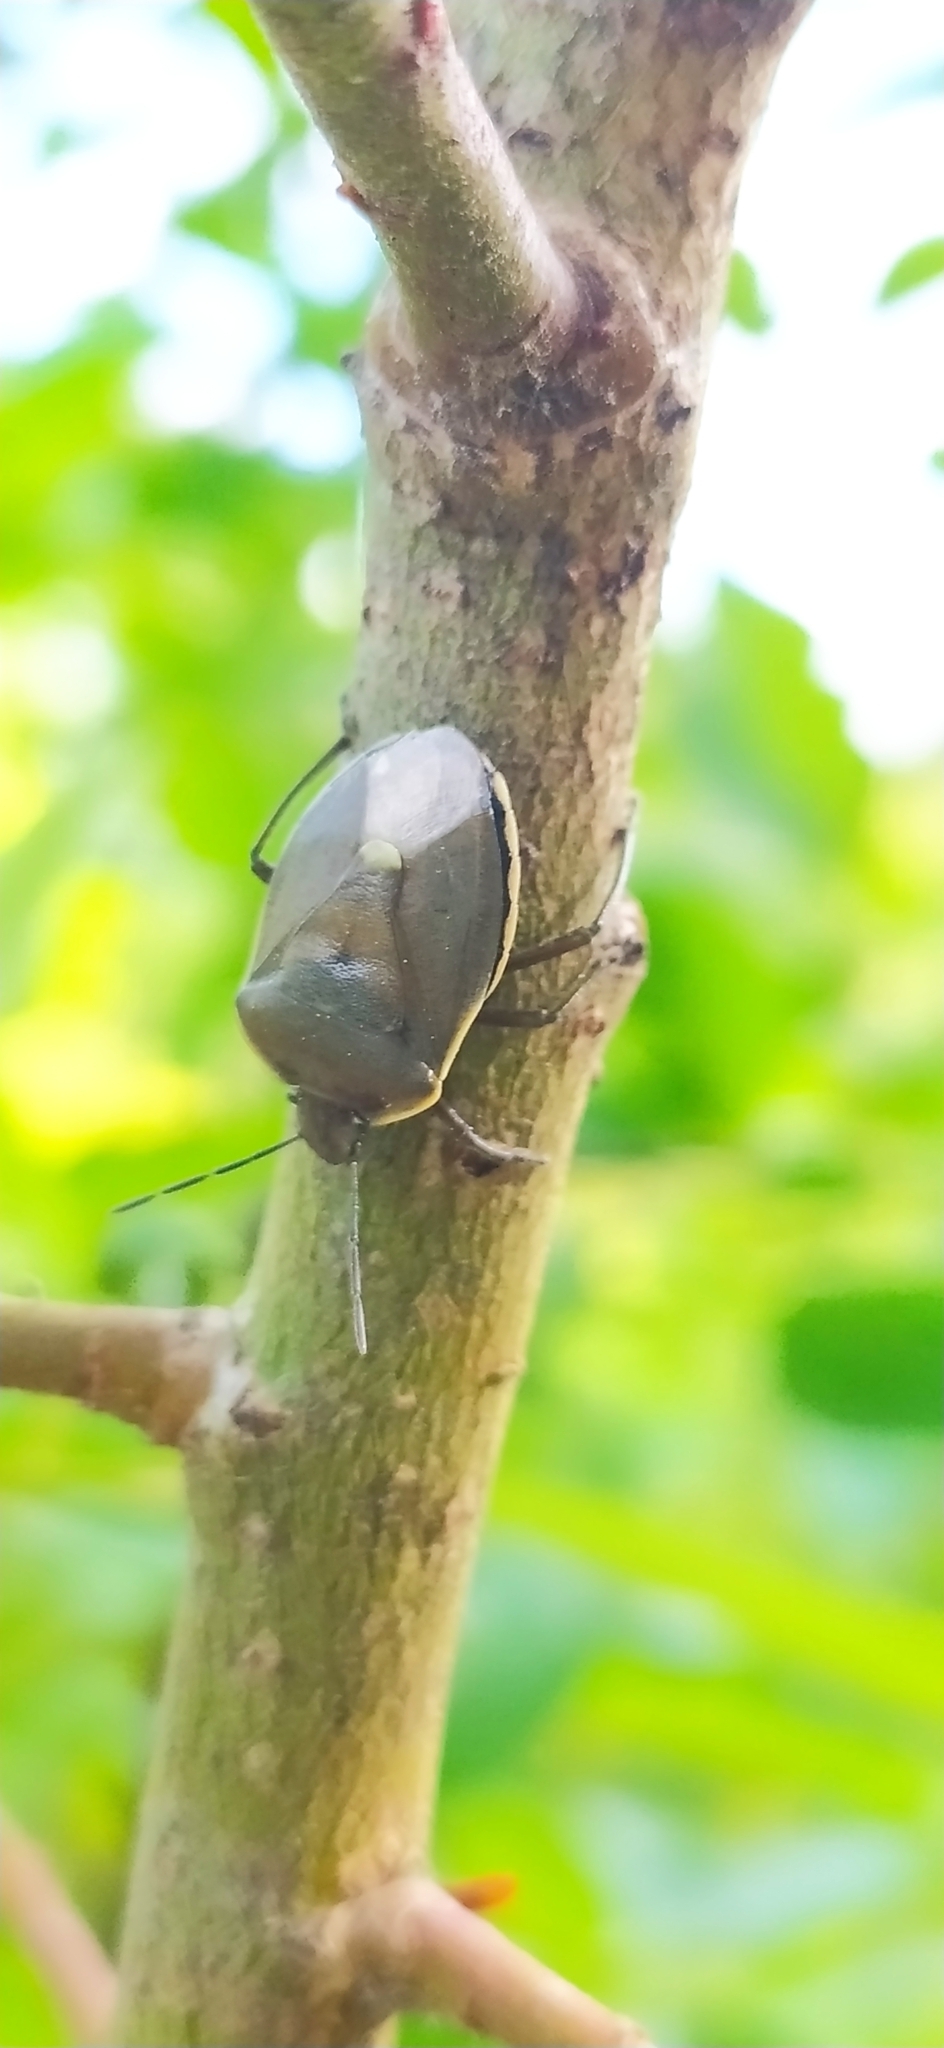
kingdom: Animalia
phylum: Arthropoda
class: Insecta
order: Hemiptera
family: Pentatomidae
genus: Chlorochroa
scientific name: Chlorochroa pinicola
